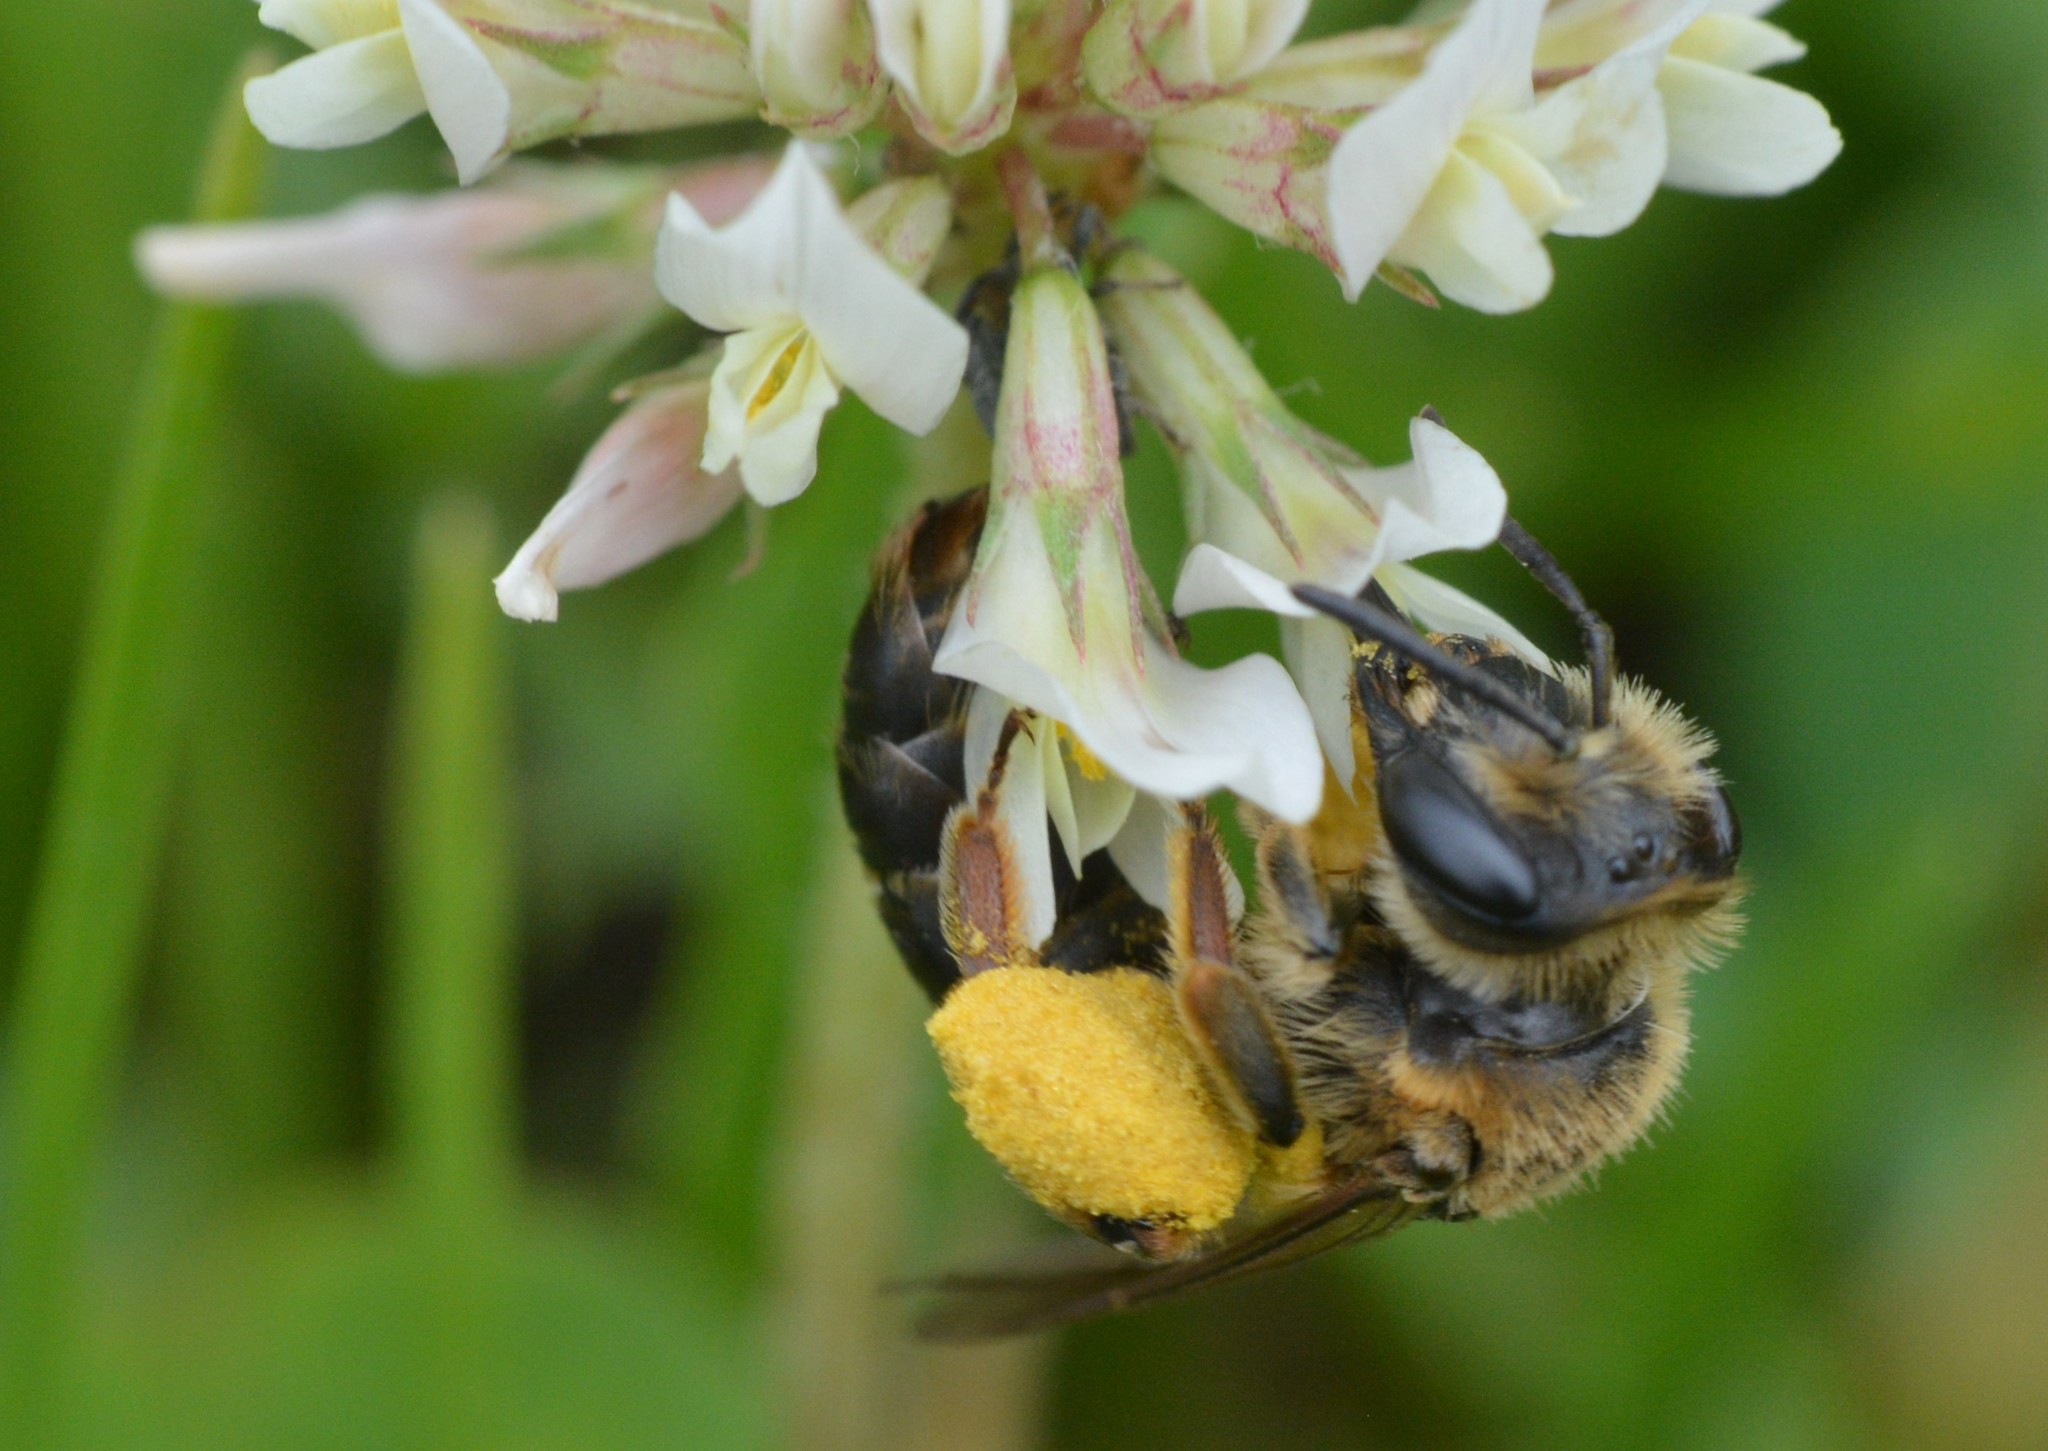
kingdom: Animalia
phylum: Arthropoda
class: Insecta
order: Hymenoptera
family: Andrenidae
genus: Andrena
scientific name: Andrena wilkella
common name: Wilke's mining bee
